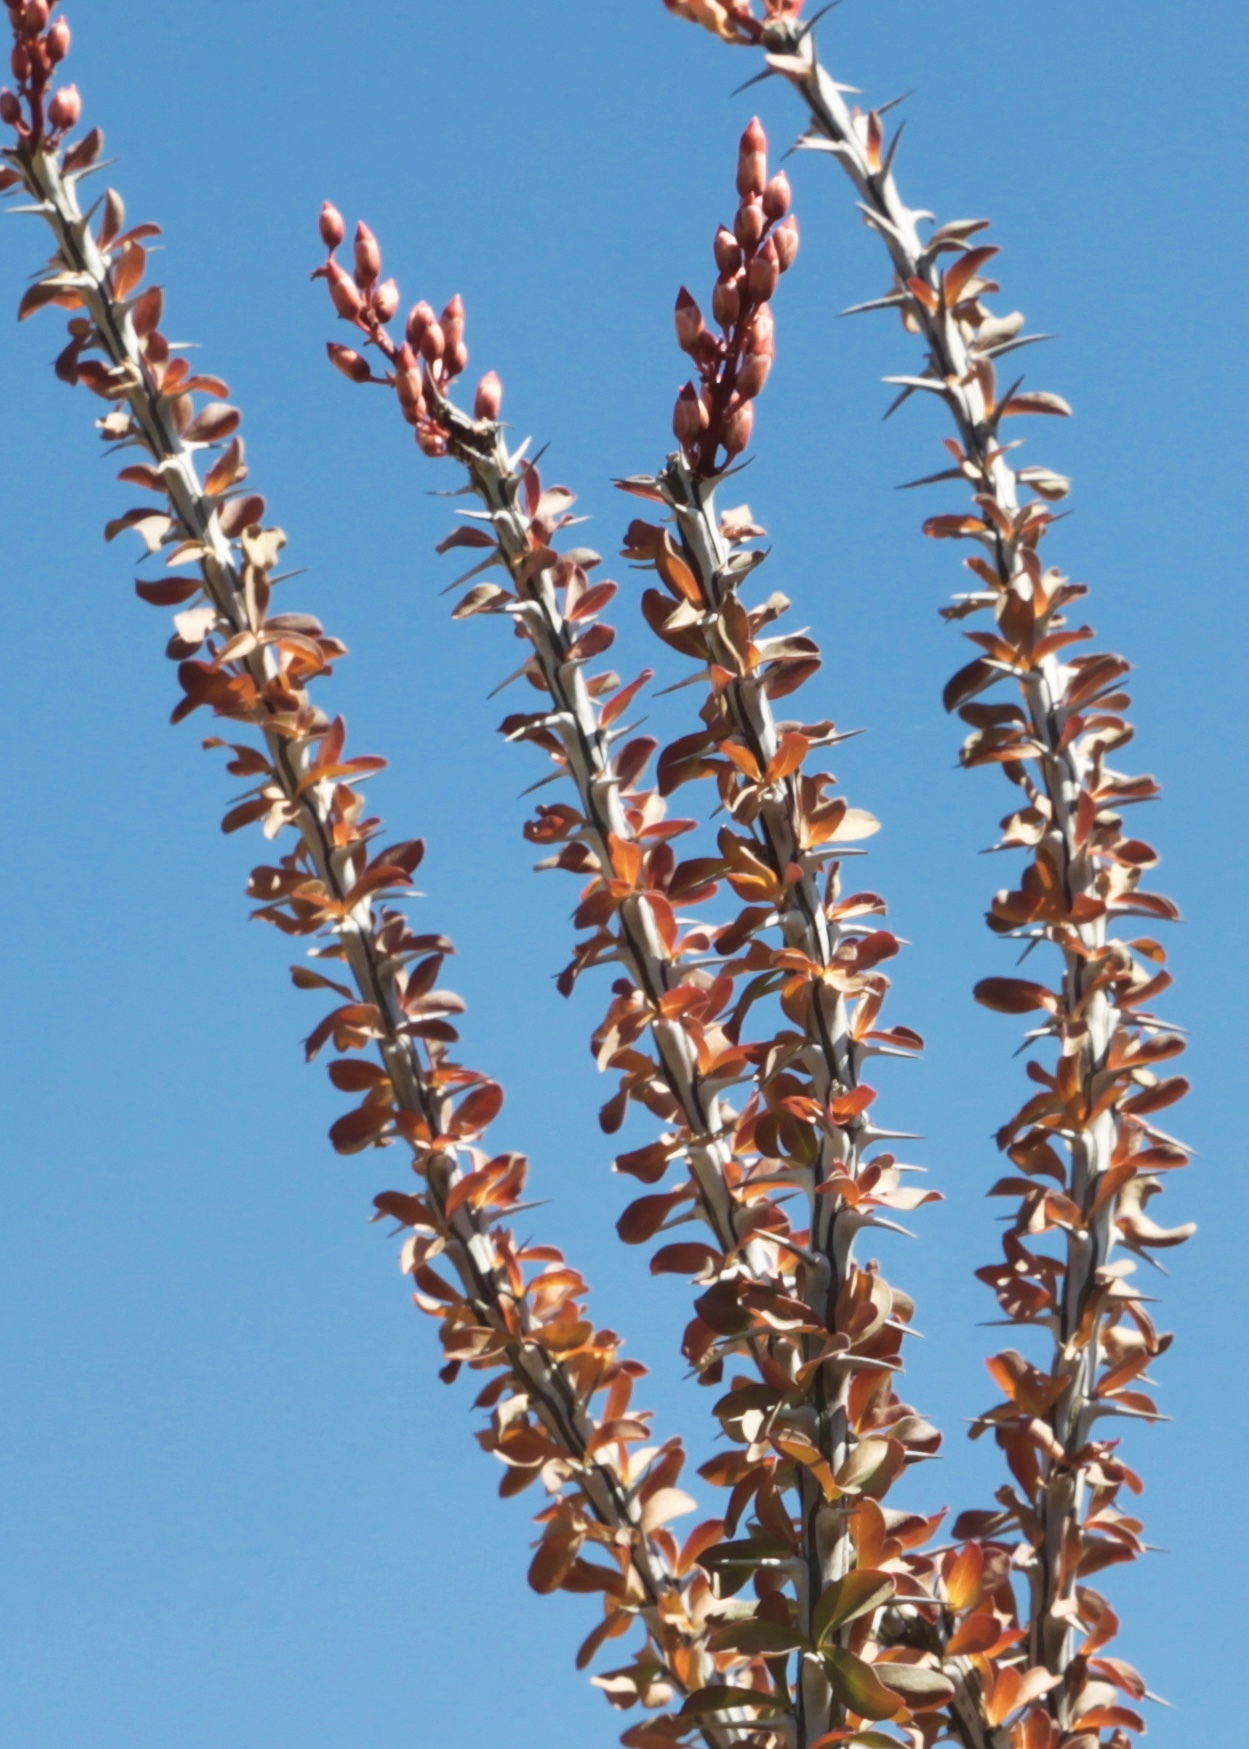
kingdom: Plantae
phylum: Tracheophyta
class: Magnoliopsida
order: Ericales
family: Fouquieriaceae
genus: Fouquieria
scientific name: Fouquieria splendens
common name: Vine-cactus
